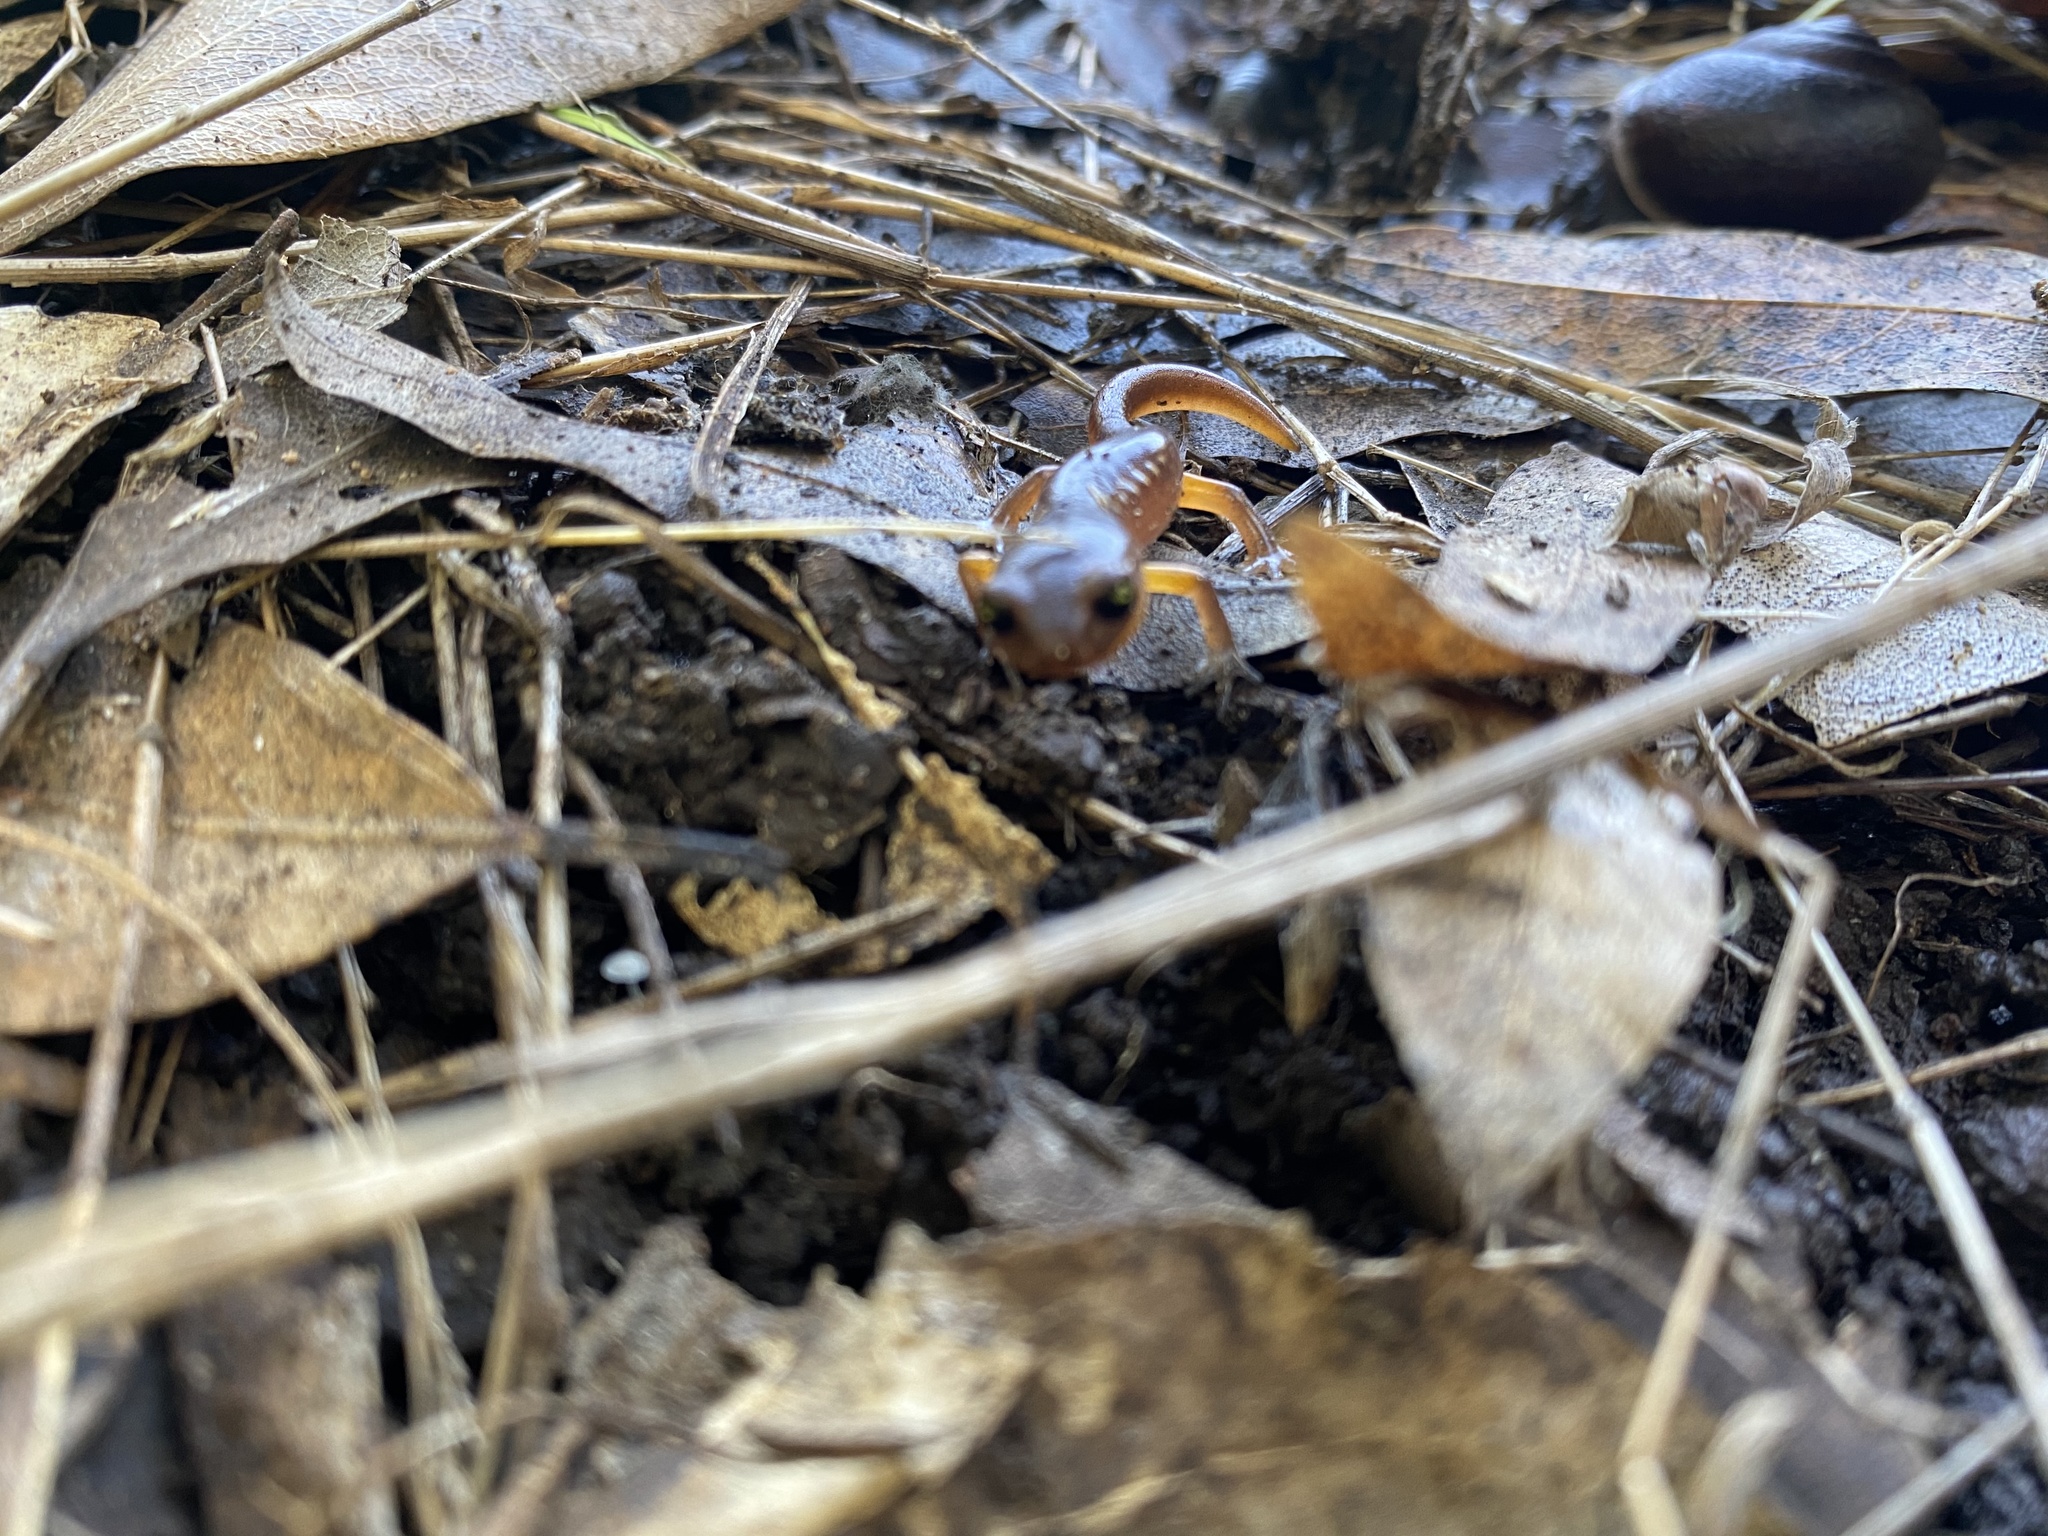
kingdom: Animalia
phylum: Chordata
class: Amphibia
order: Caudata
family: Plethodontidae
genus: Ensatina
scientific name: Ensatina eschscholtzii
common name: Ensatina
